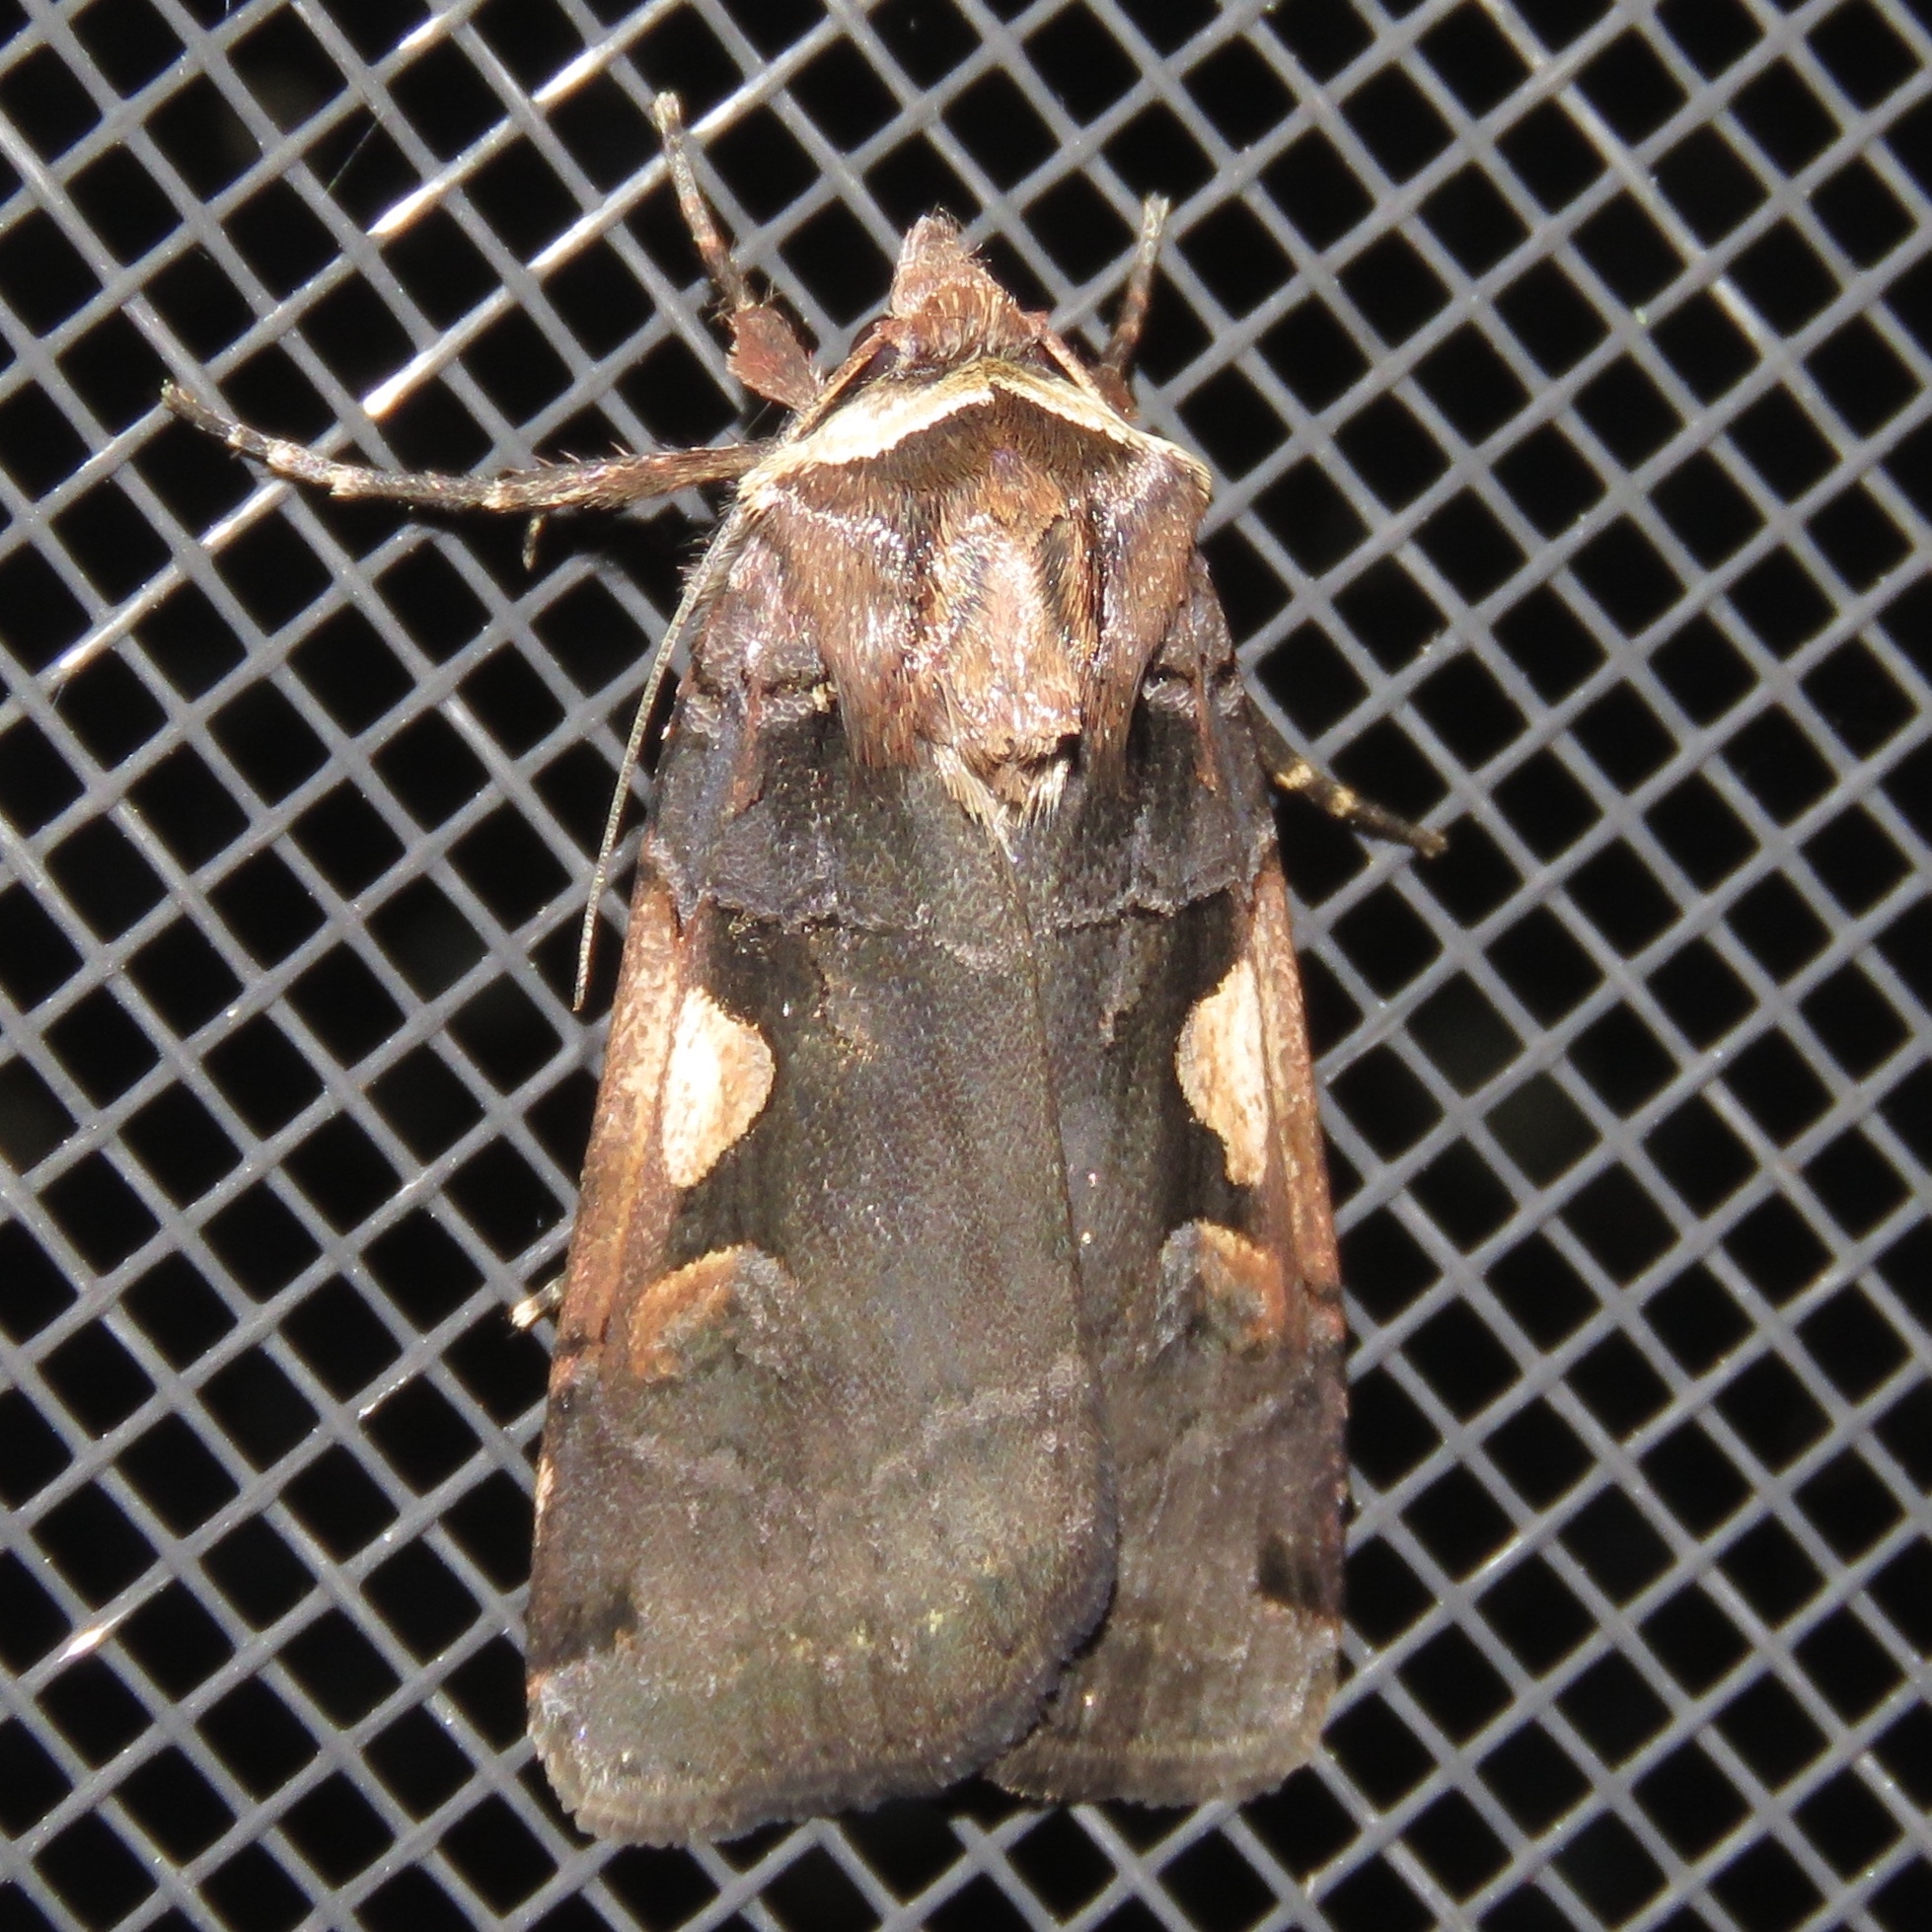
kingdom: Animalia
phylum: Arthropoda
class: Insecta
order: Lepidoptera
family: Noctuidae
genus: Xestia
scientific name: Xestia
